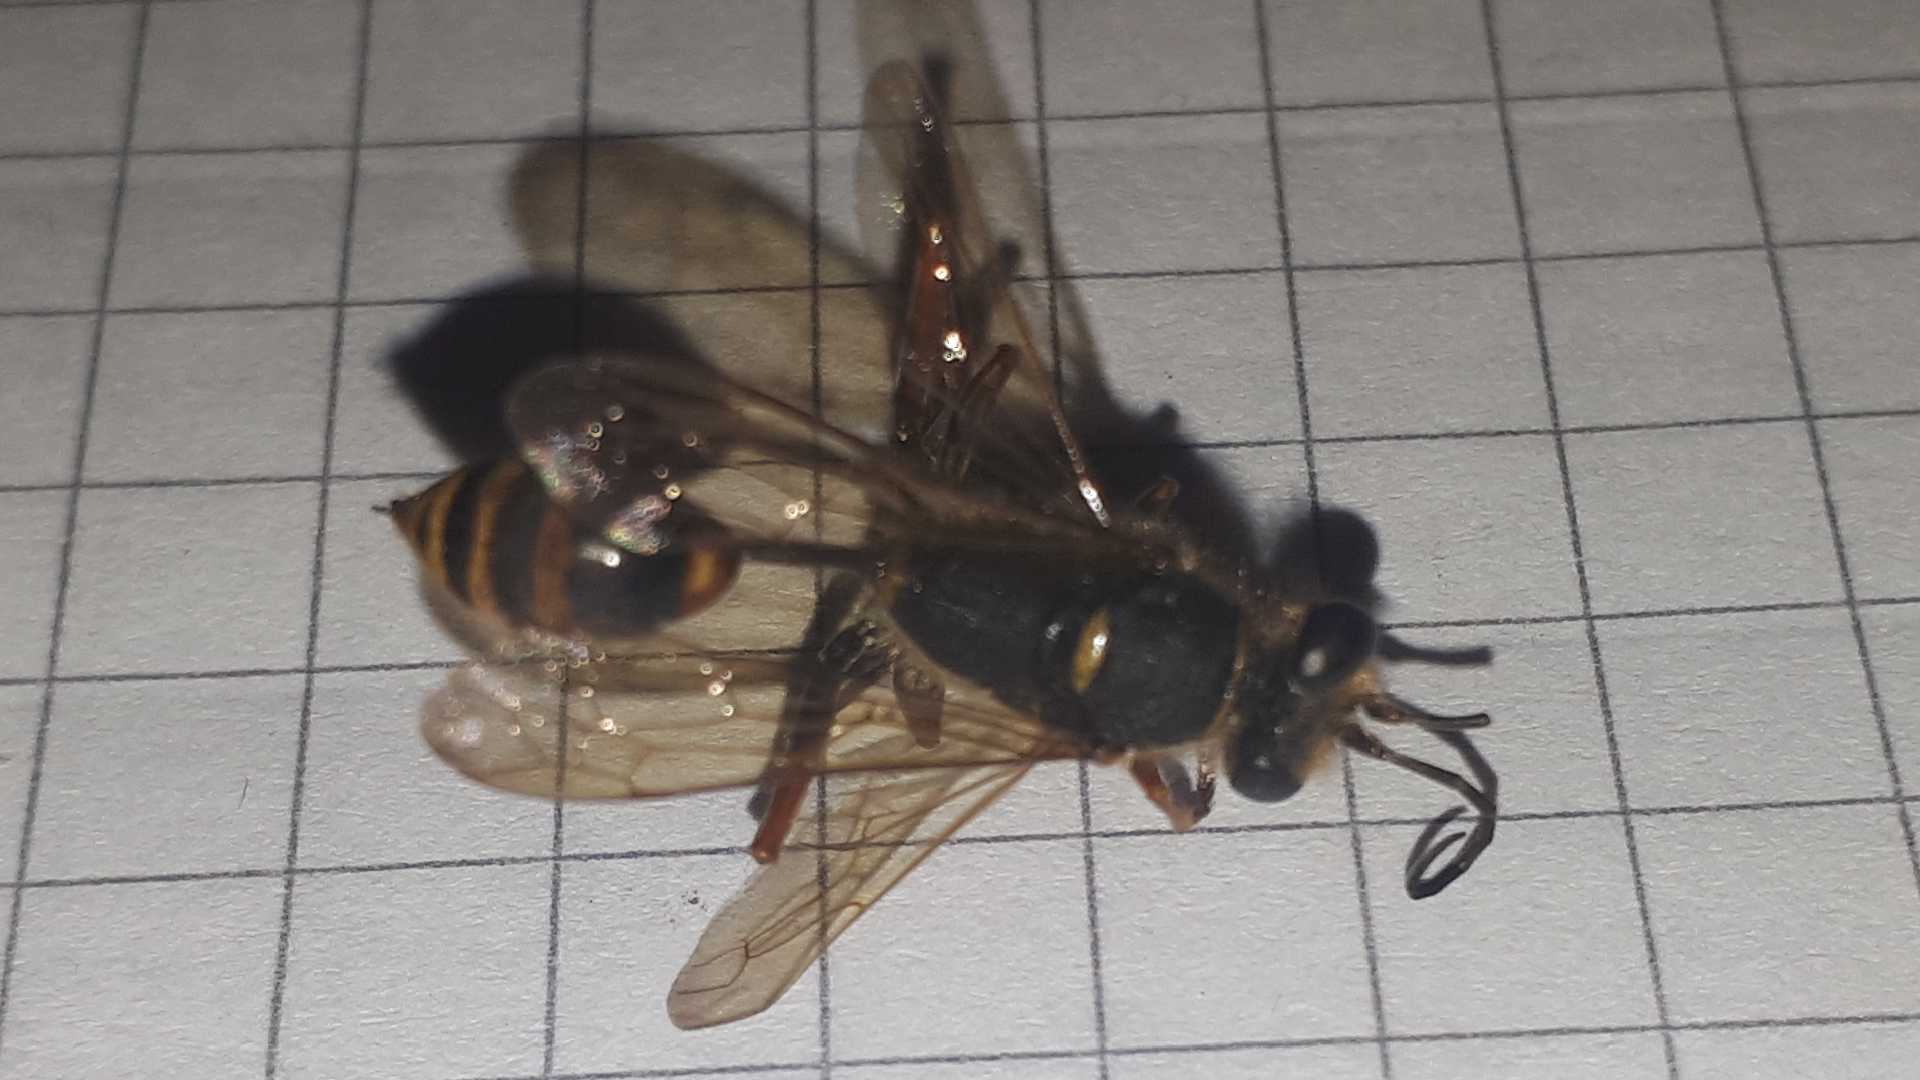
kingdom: Animalia
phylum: Arthropoda
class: Insecta
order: Hymenoptera
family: Sphecidae
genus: Sceliphron
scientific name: Sceliphron curvatum
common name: Pèlopèe
